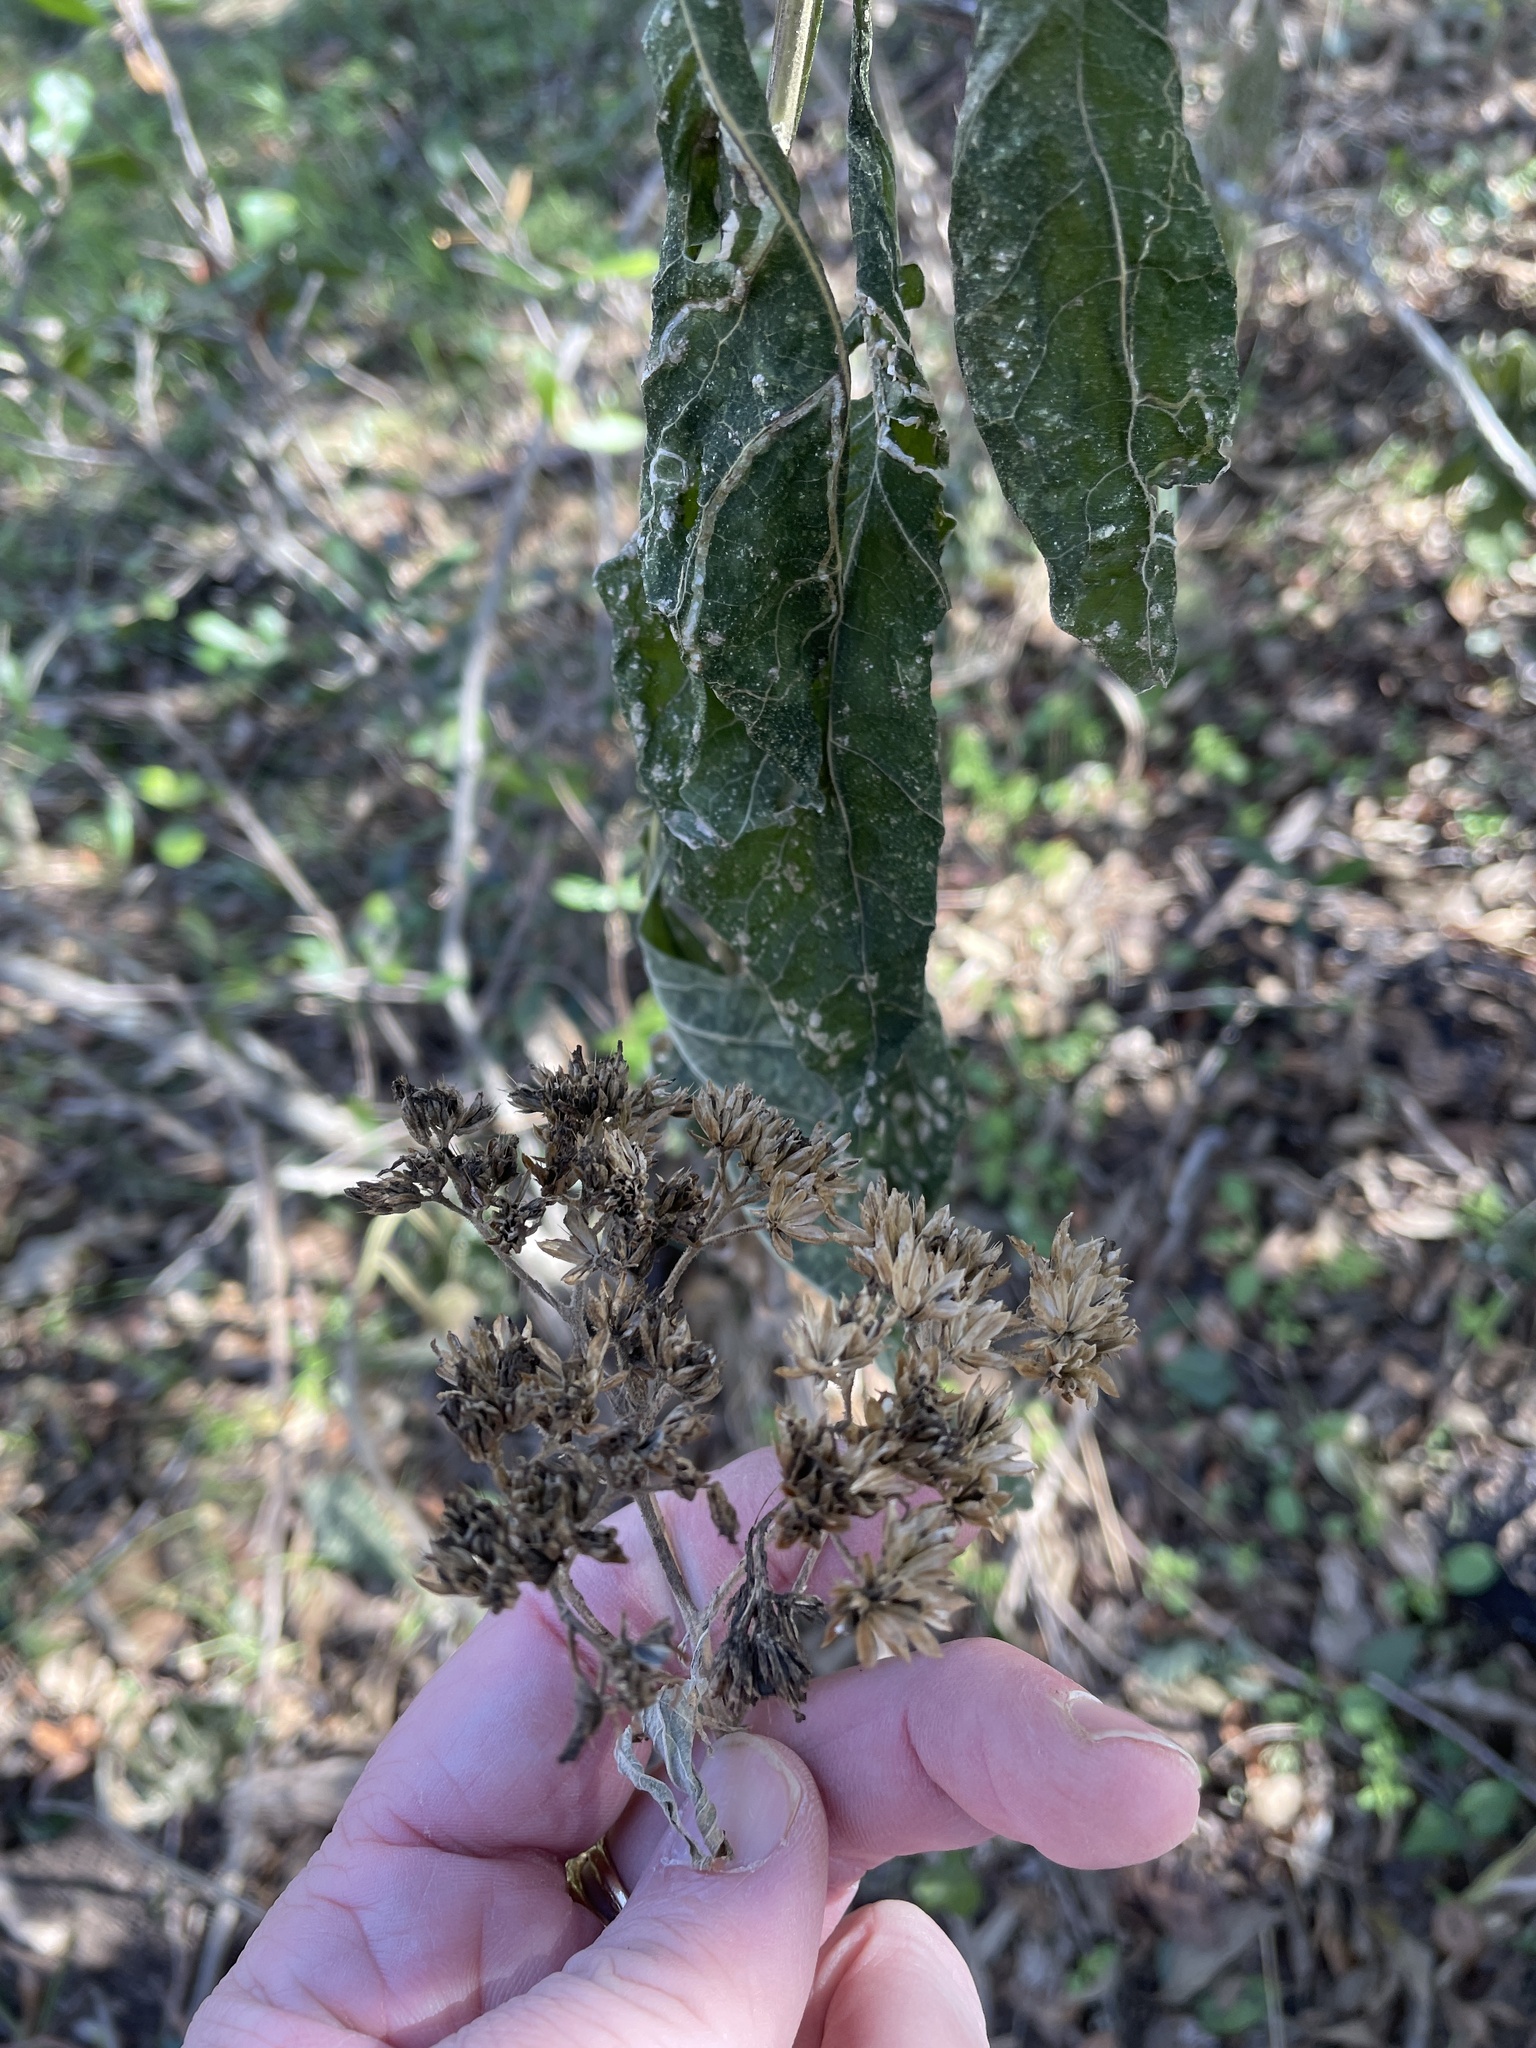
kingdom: Plantae
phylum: Tracheophyta
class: Magnoliopsida
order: Asterales
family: Asteraceae
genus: Verbesina
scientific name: Verbesina virginica
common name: Frostweed
